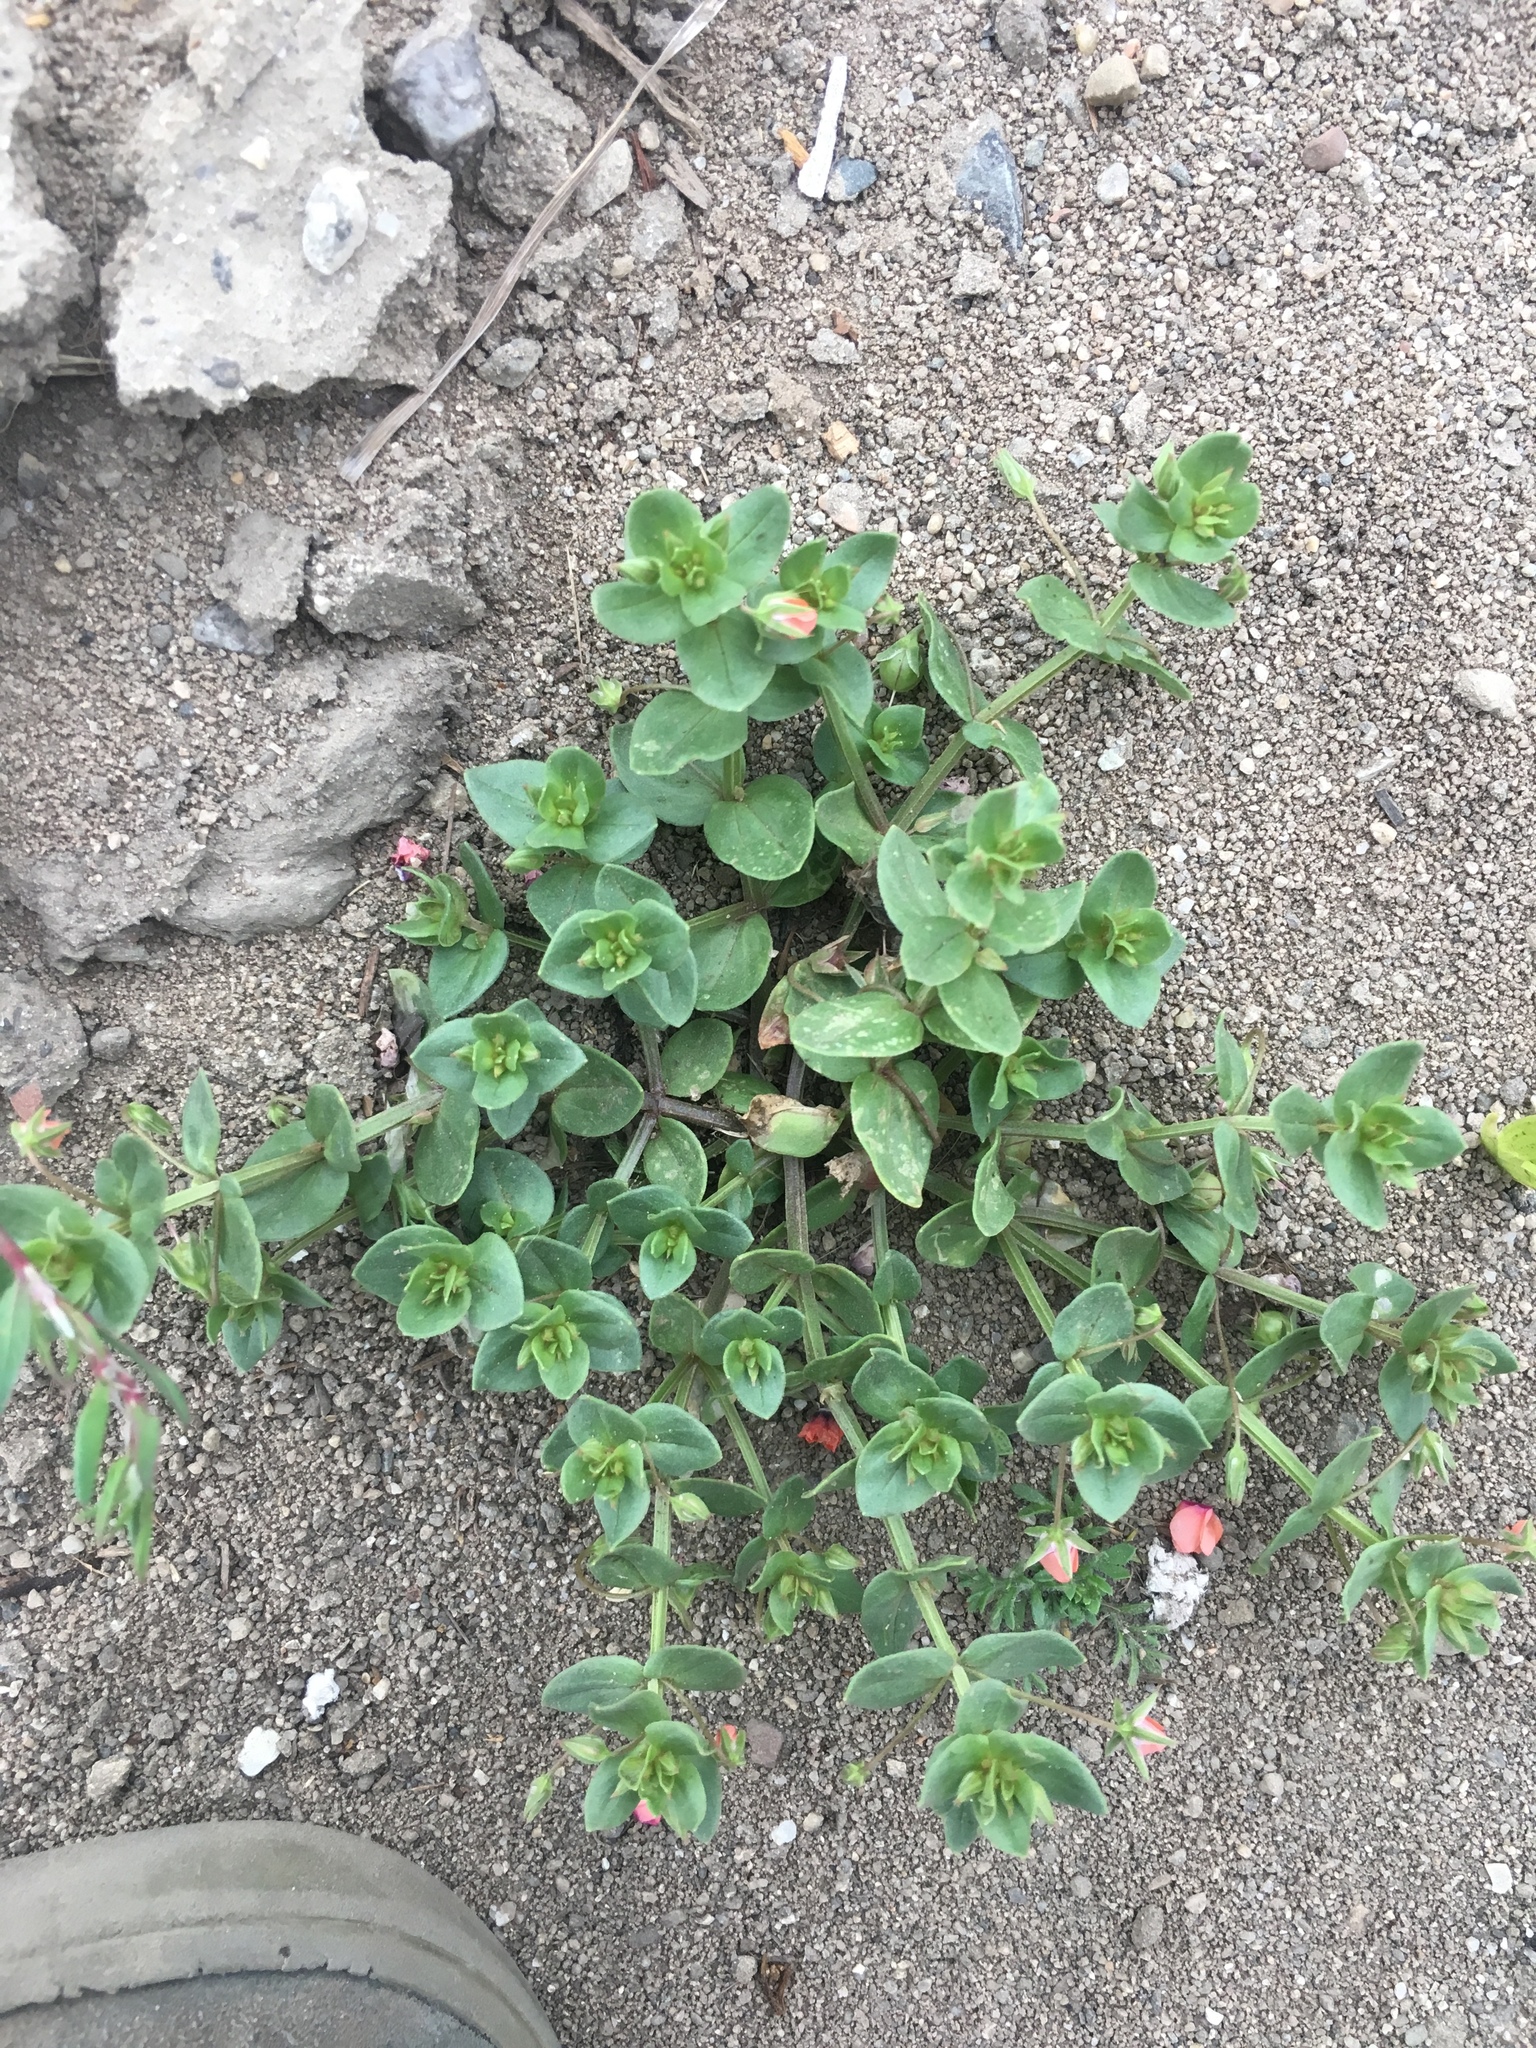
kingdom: Plantae
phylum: Tracheophyta
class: Magnoliopsida
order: Ericales
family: Primulaceae
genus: Lysimachia
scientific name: Lysimachia arvensis
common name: Scarlet pimpernel
